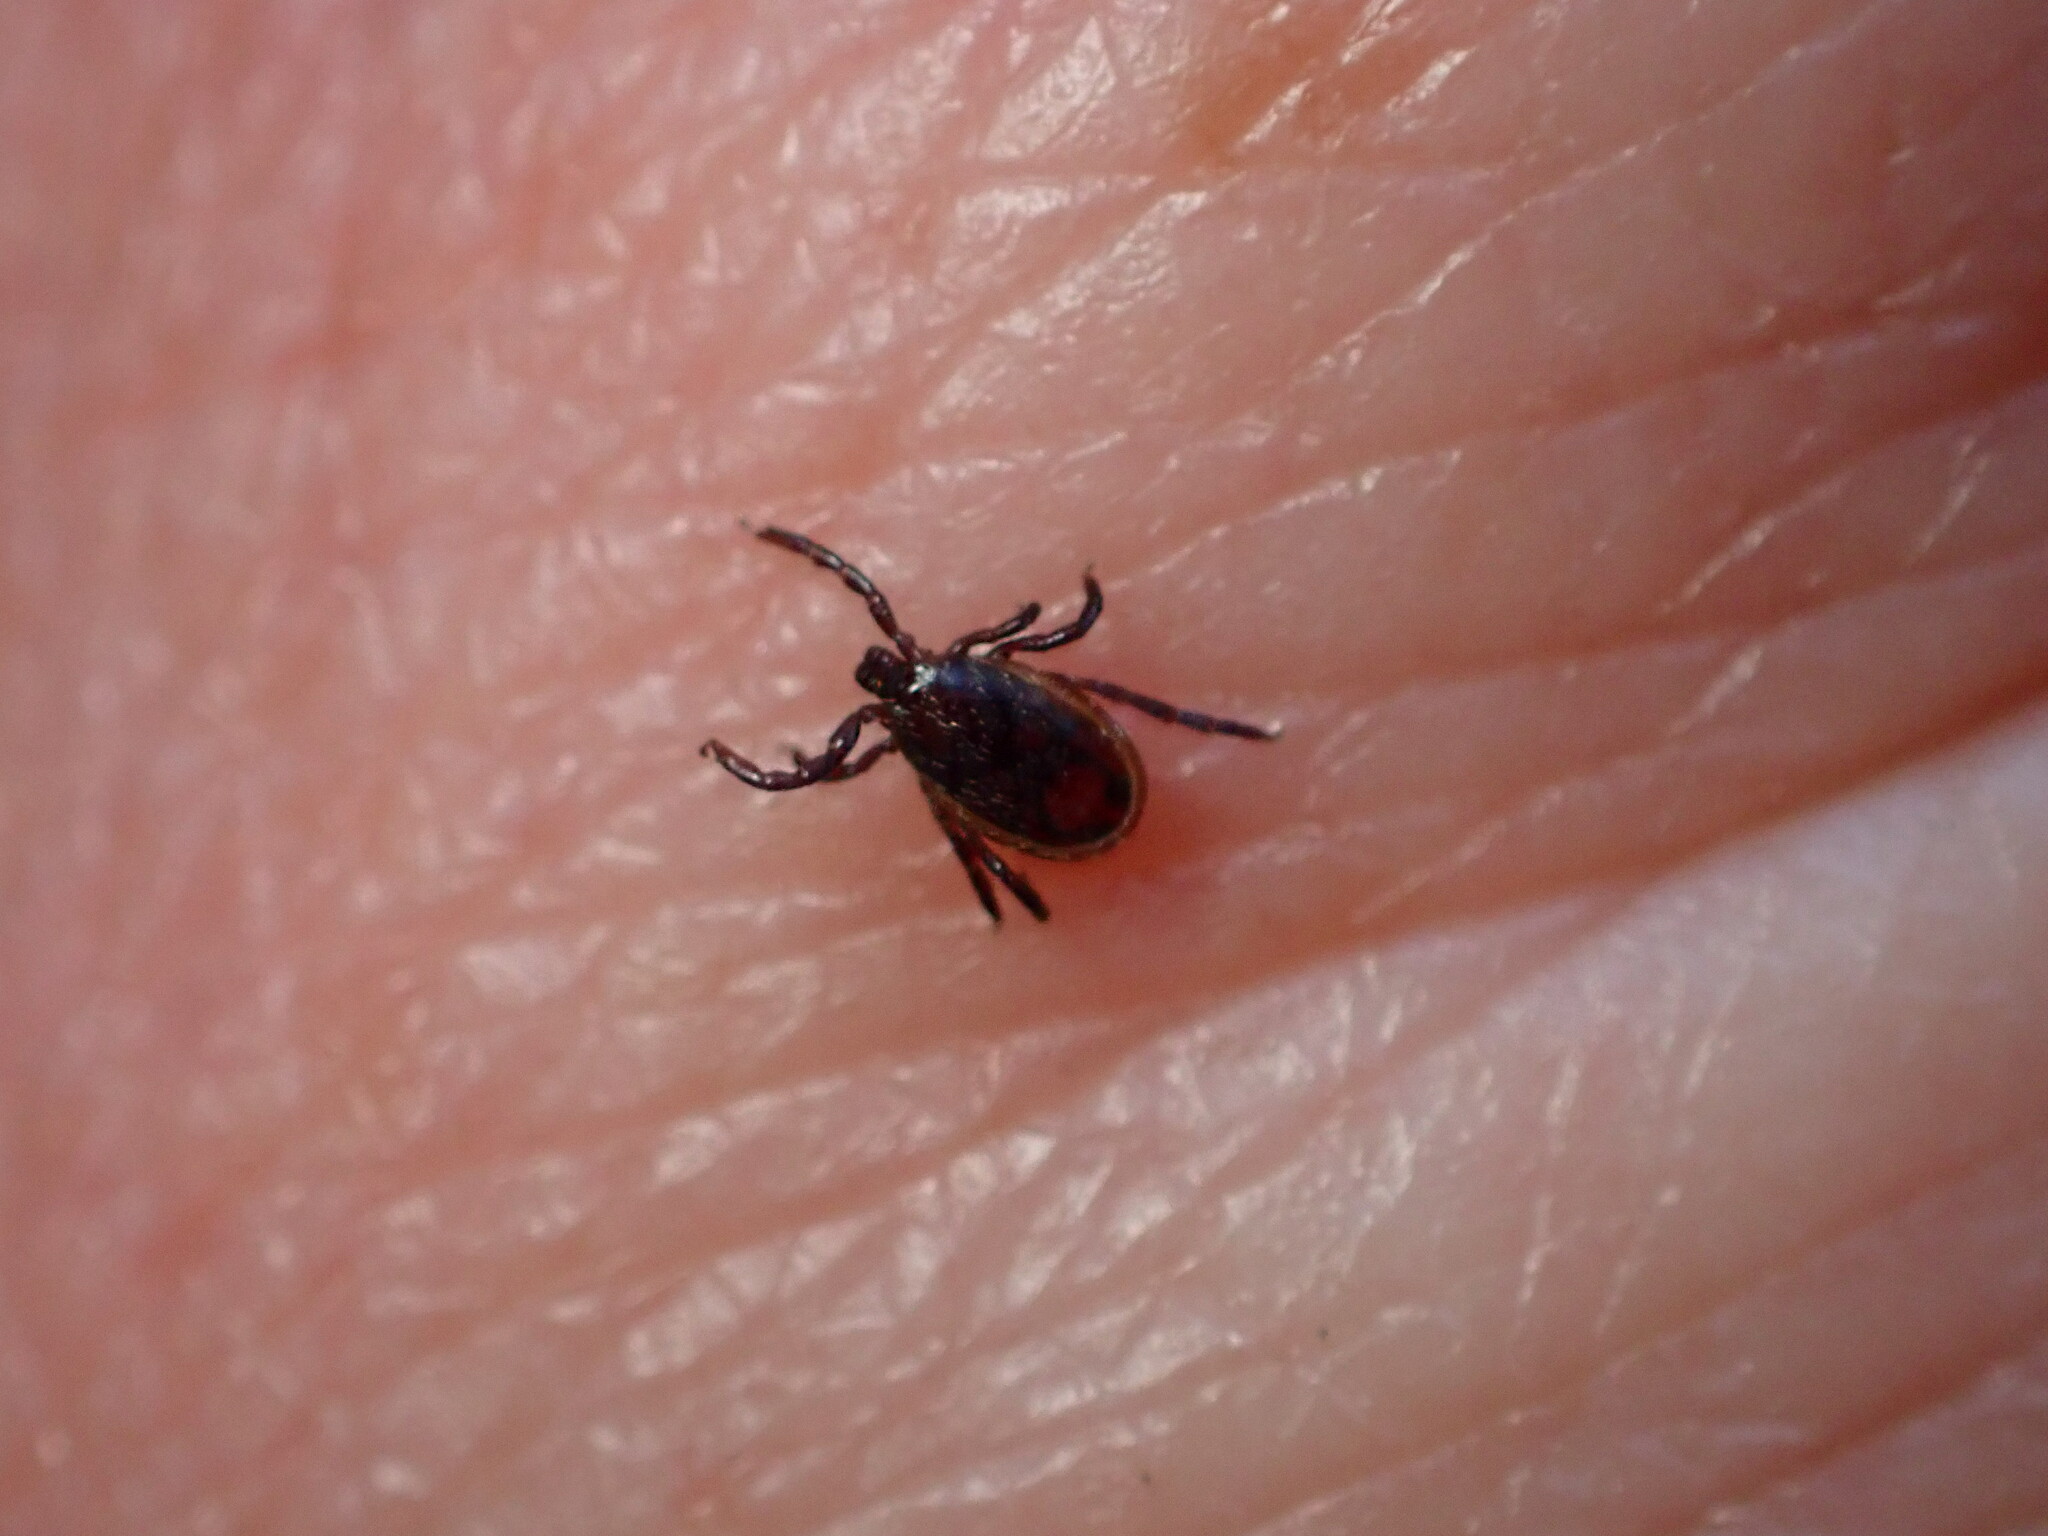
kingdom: Animalia
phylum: Arthropoda
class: Arachnida
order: Ixodida
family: Ixodidae
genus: Ixodes
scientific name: Ixodes pacificus
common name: California black-legged tick
